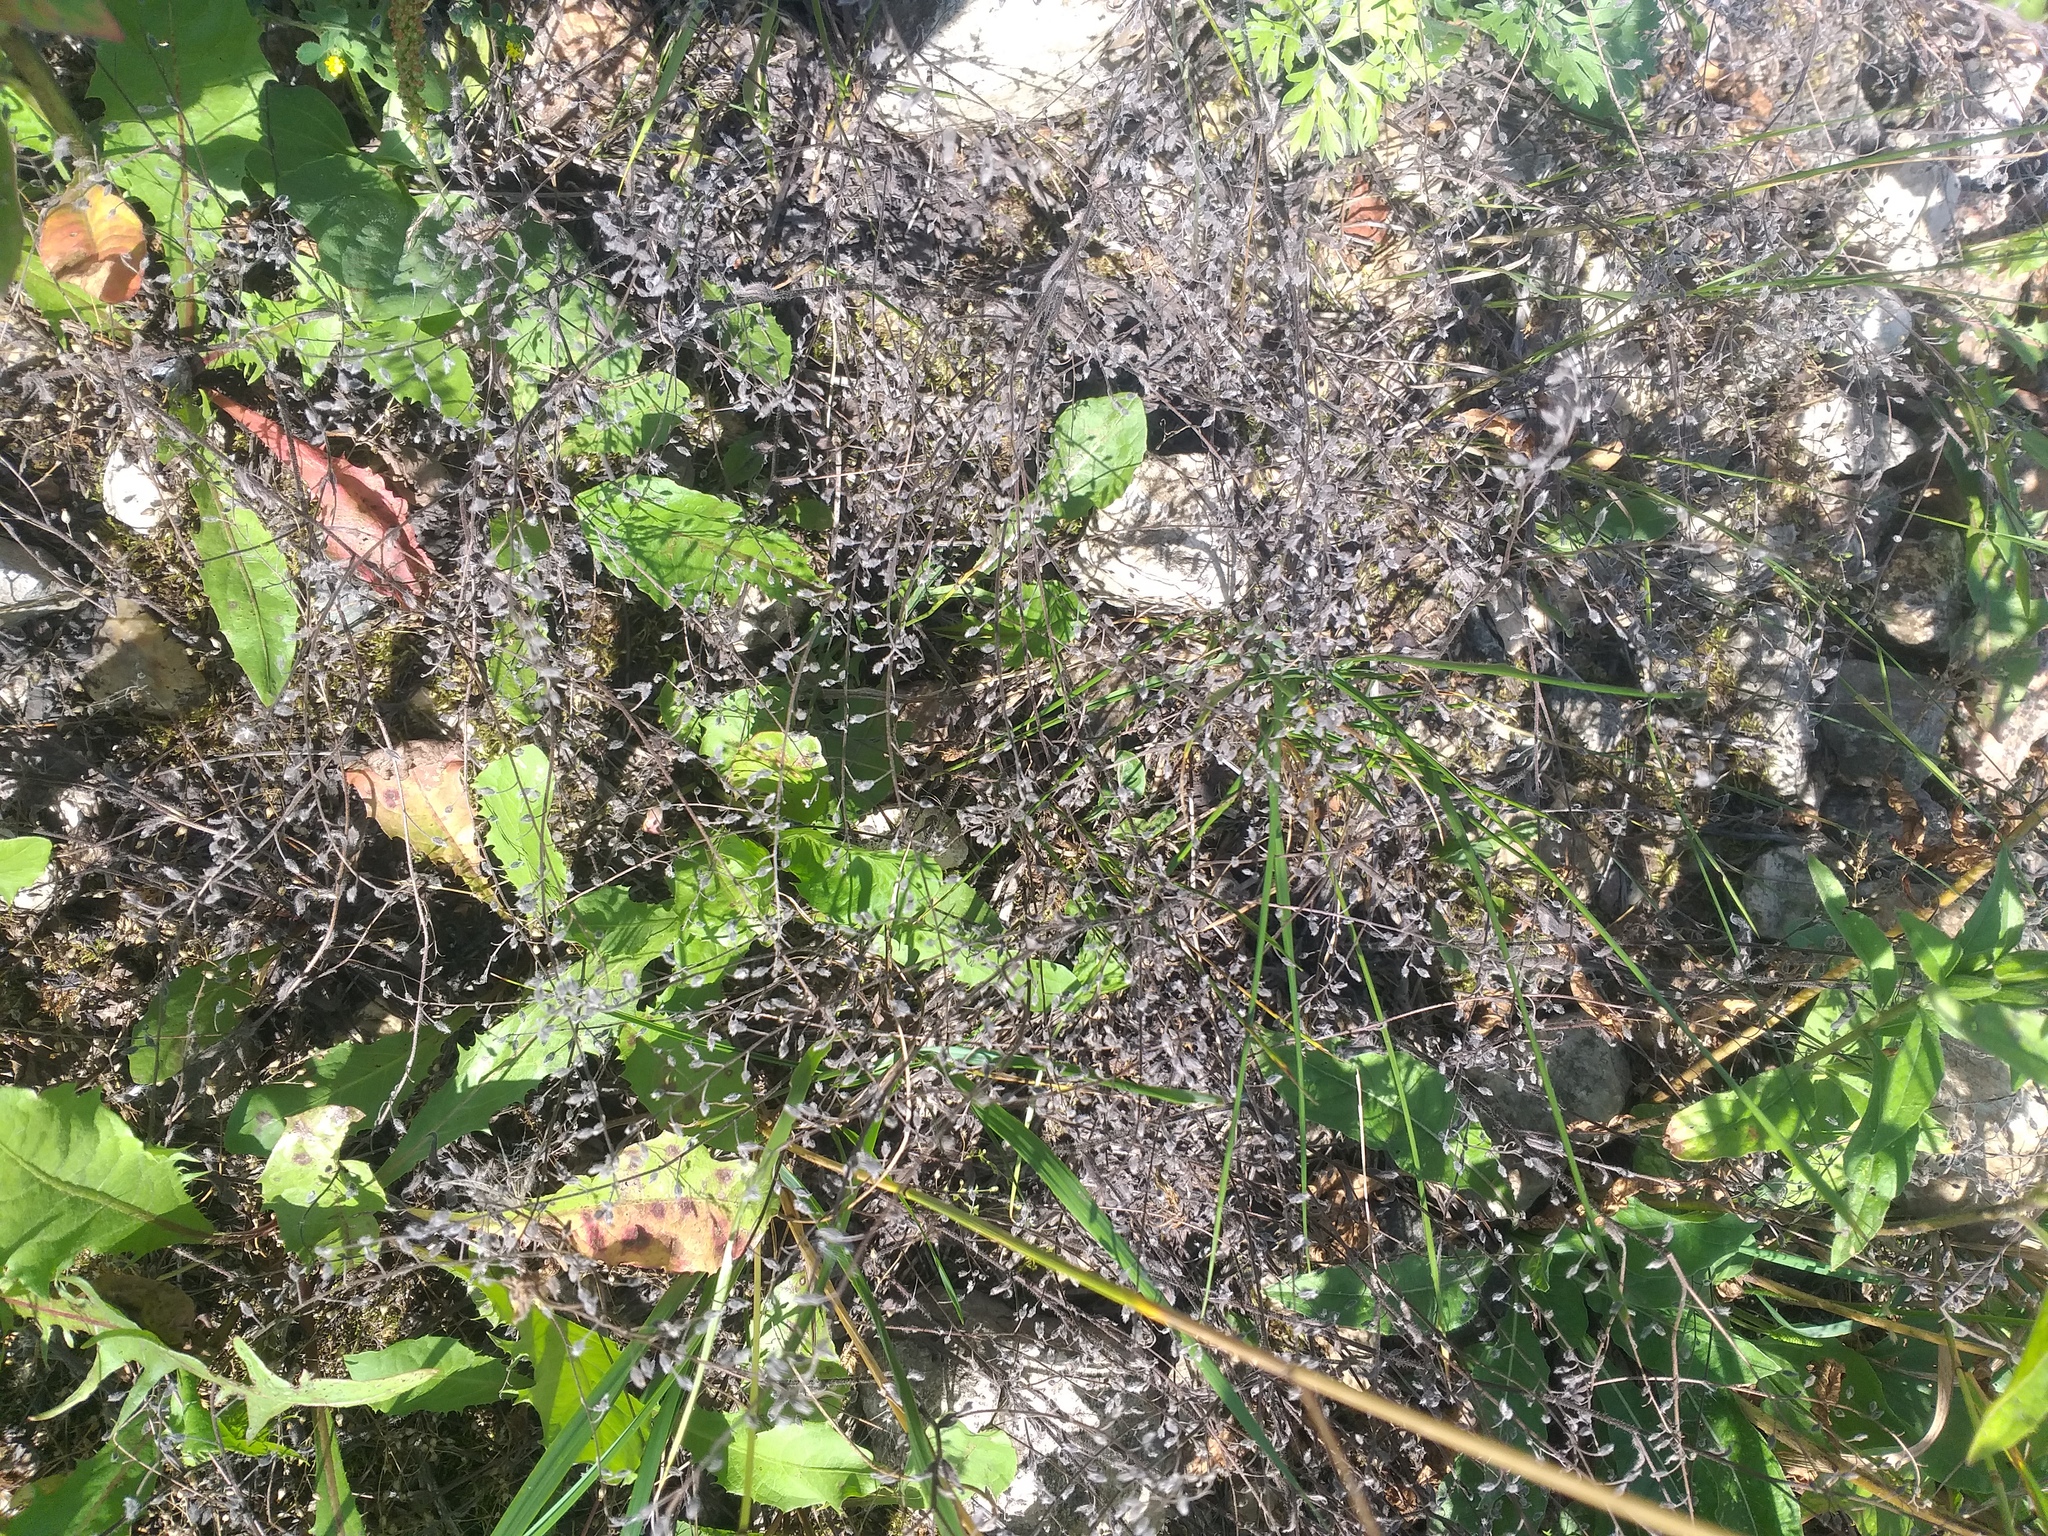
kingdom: Plantae
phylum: Tracheophyta
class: Magnoliopsida
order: Boraginales
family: Boraginaceae
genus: Myosotis
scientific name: Myosotis arvensis
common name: Field forget-me-not
